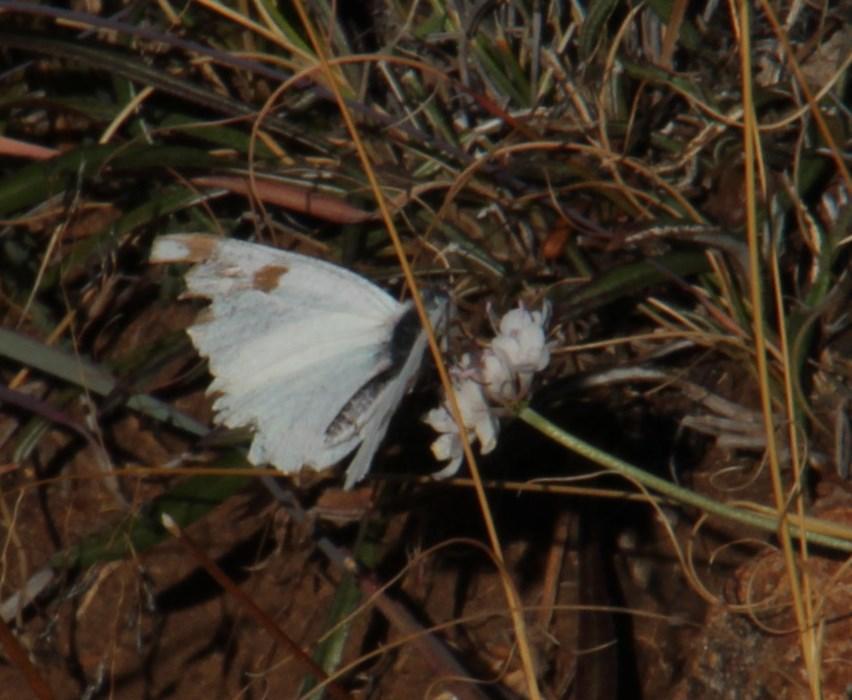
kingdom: Animalia
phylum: Arthropoda
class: Insecta
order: Lepidoptera
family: Pieridae
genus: Pontia
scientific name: Pontia helice
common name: Meadow white
